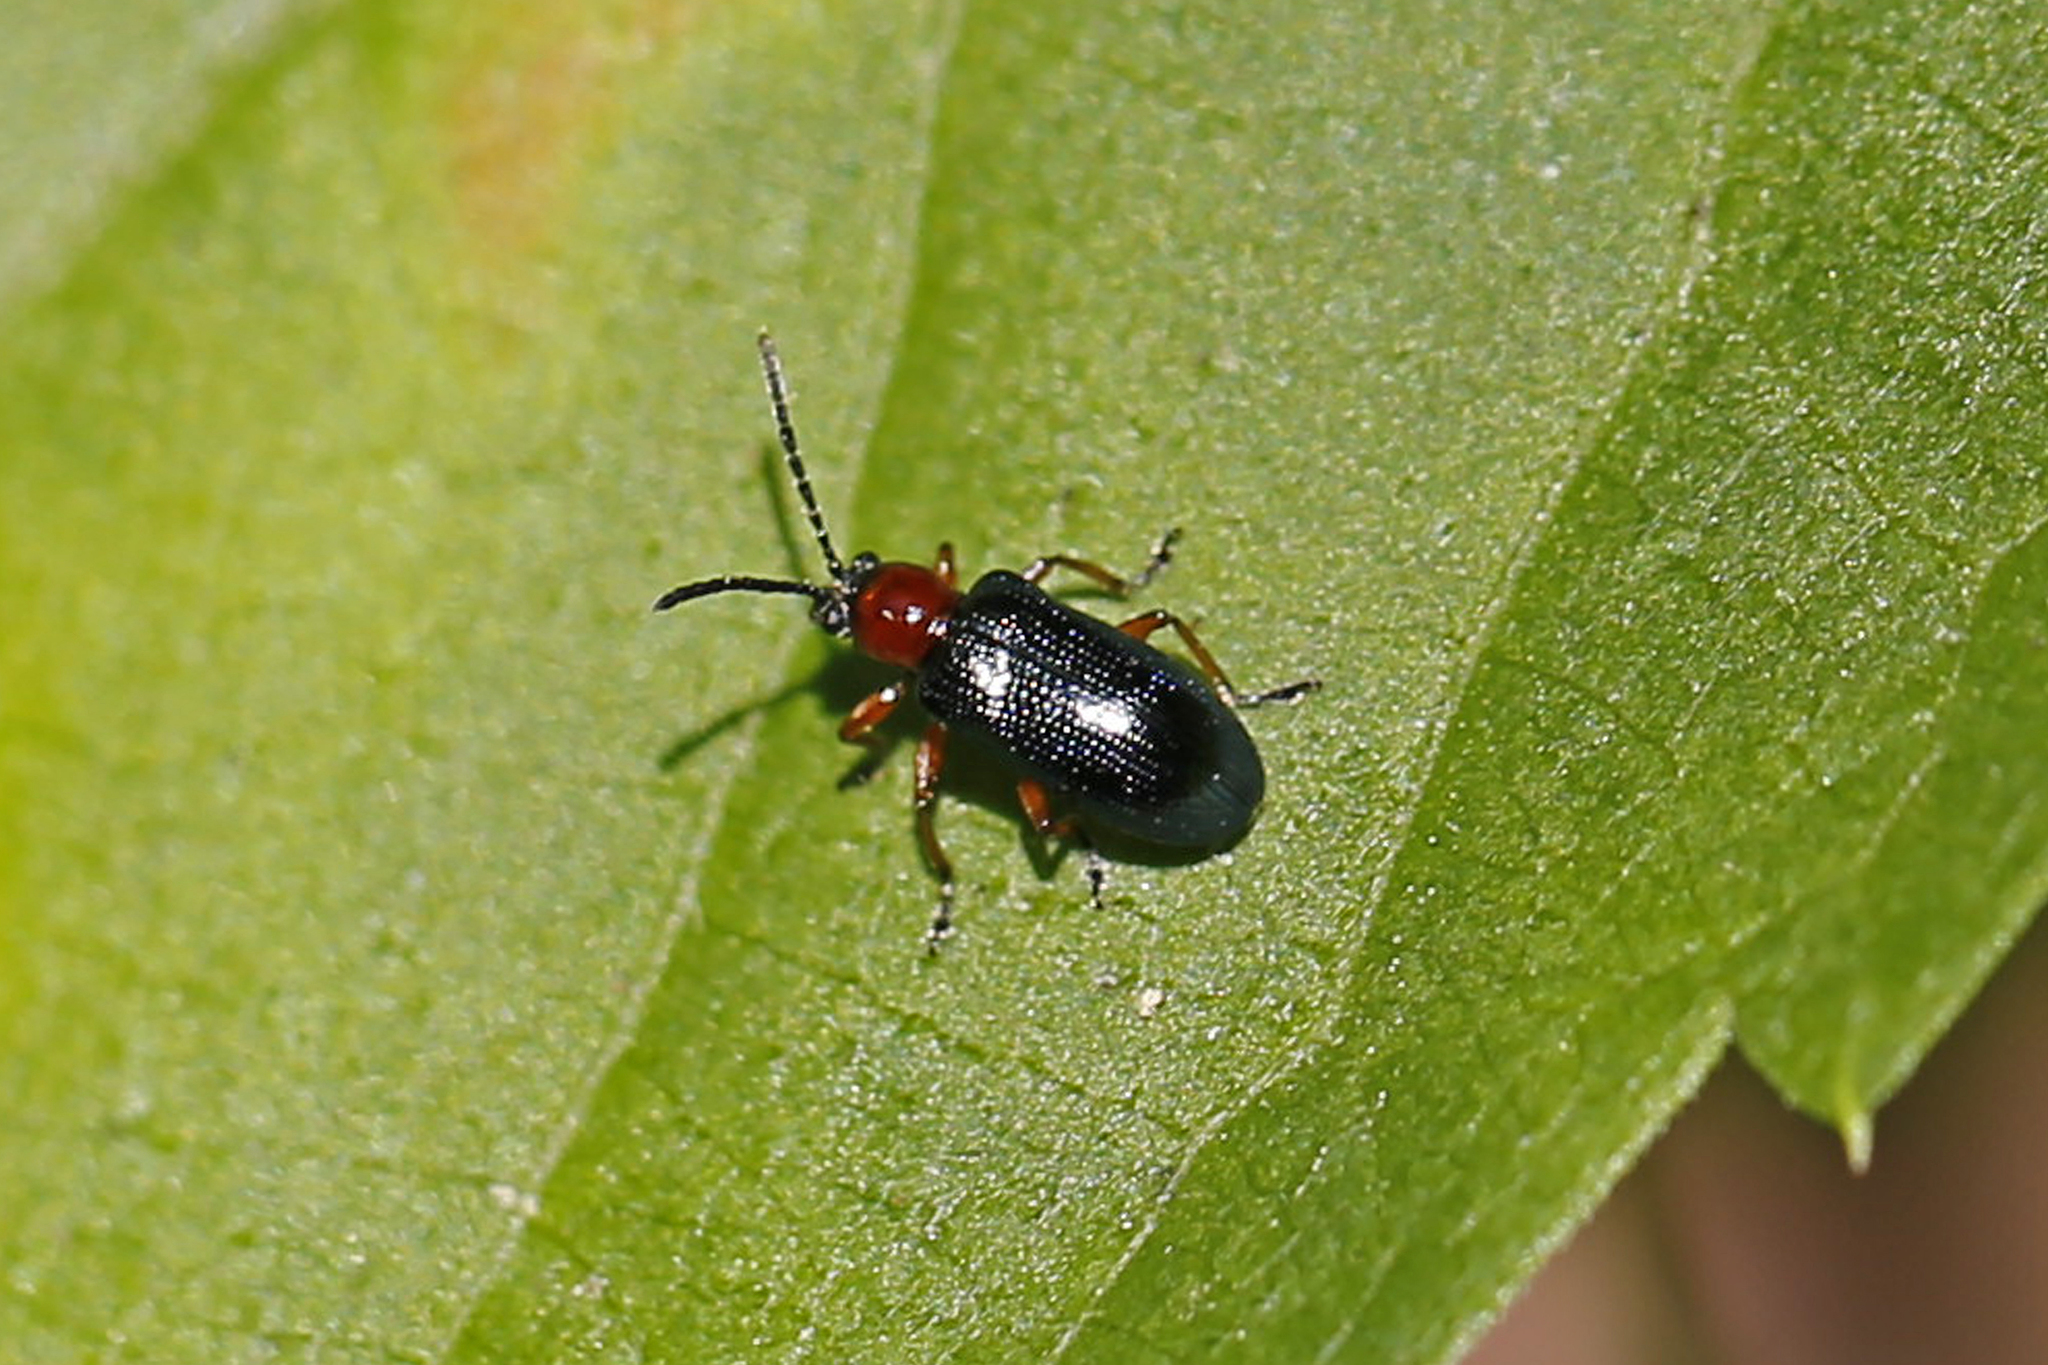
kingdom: Animalia
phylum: Arthropoda
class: Insecta
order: Coleoptera
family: Chrysomelidae
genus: Oulema
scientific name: Oulema melanopus
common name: Cereal leaf beetle
